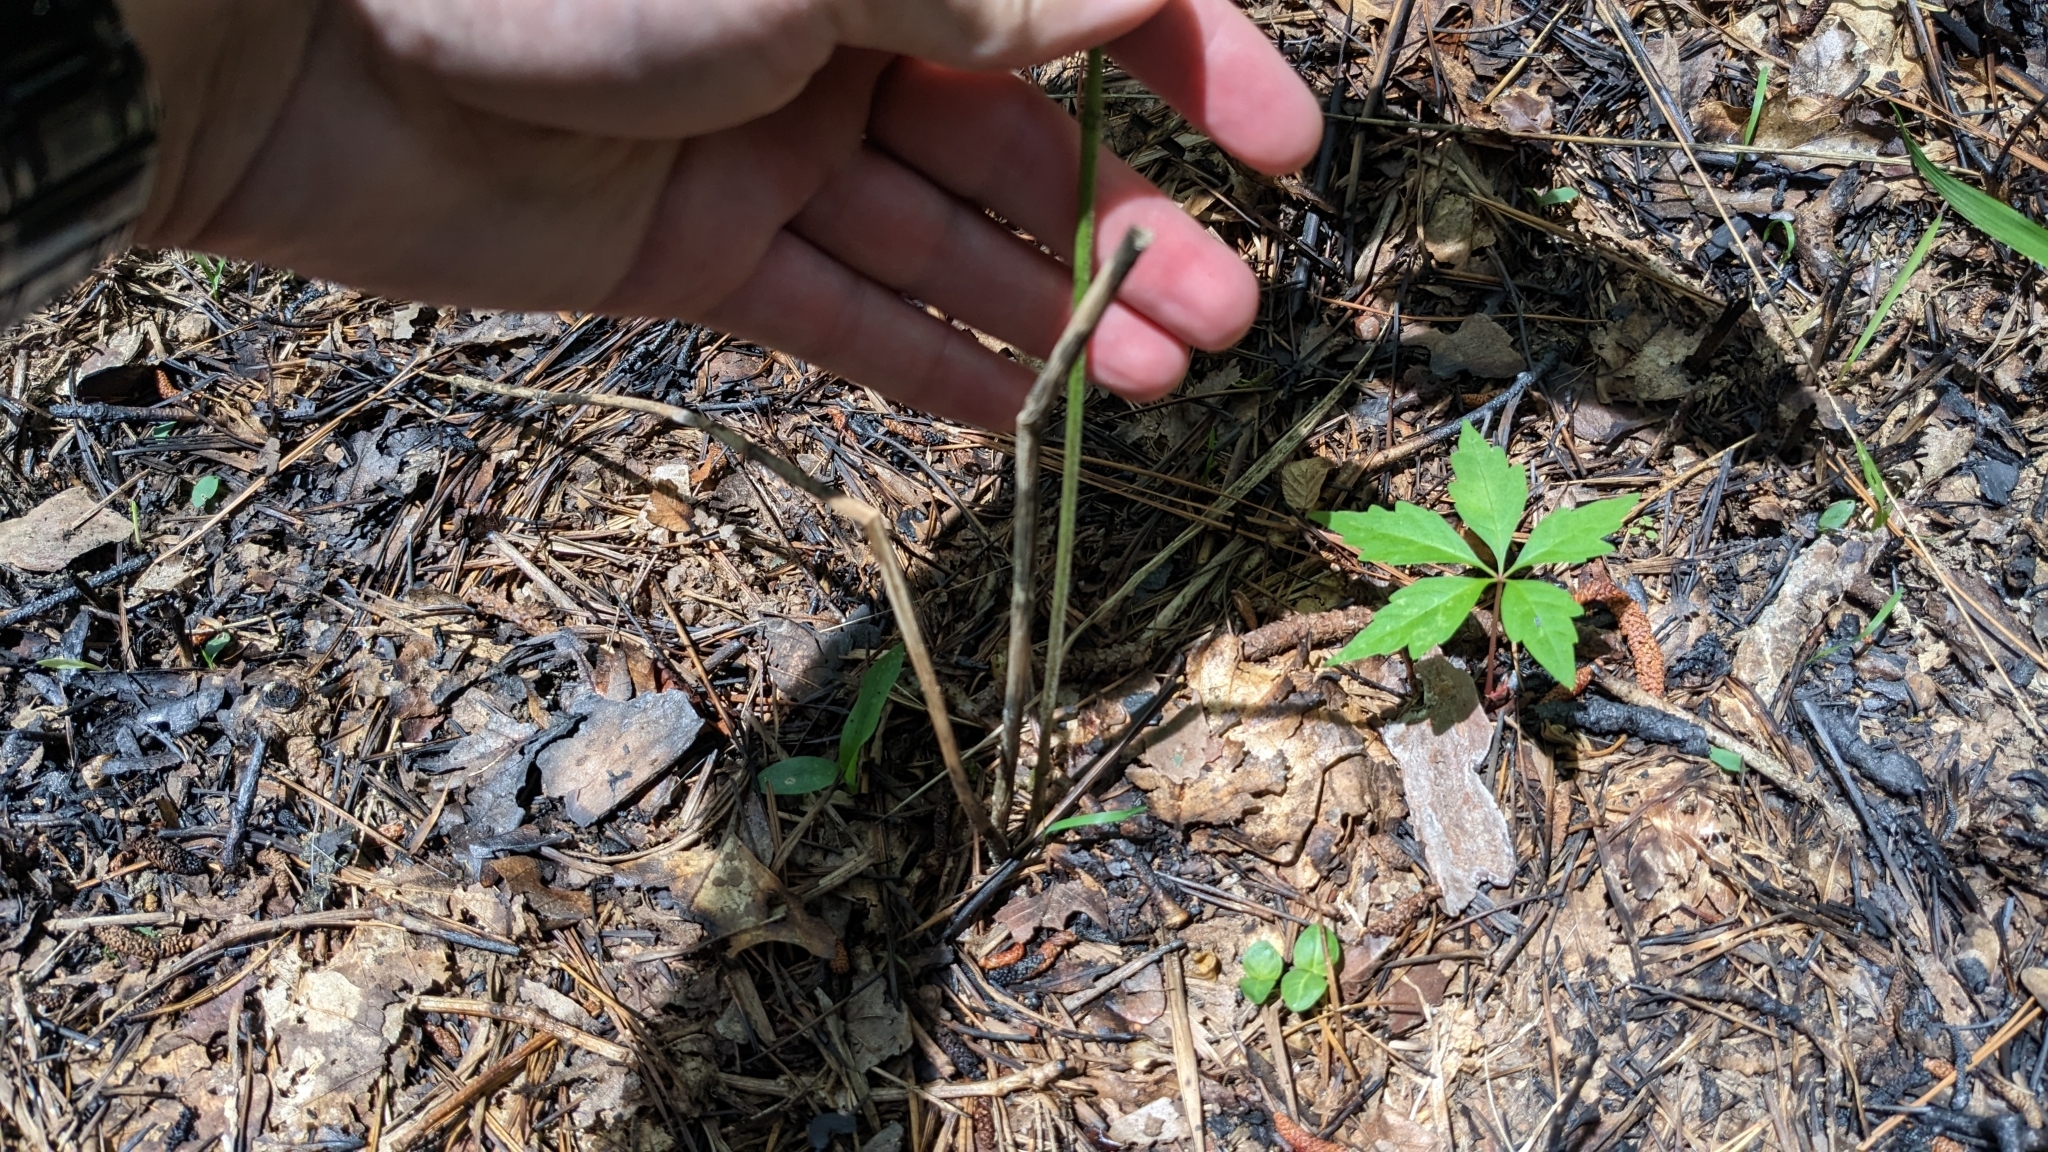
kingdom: Plantae
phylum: Tracheophyta
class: Magnoliopsida
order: Gentianales
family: Apocynaceae
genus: Asclepias
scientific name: Asclepias variegata
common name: Variegated milkweed
